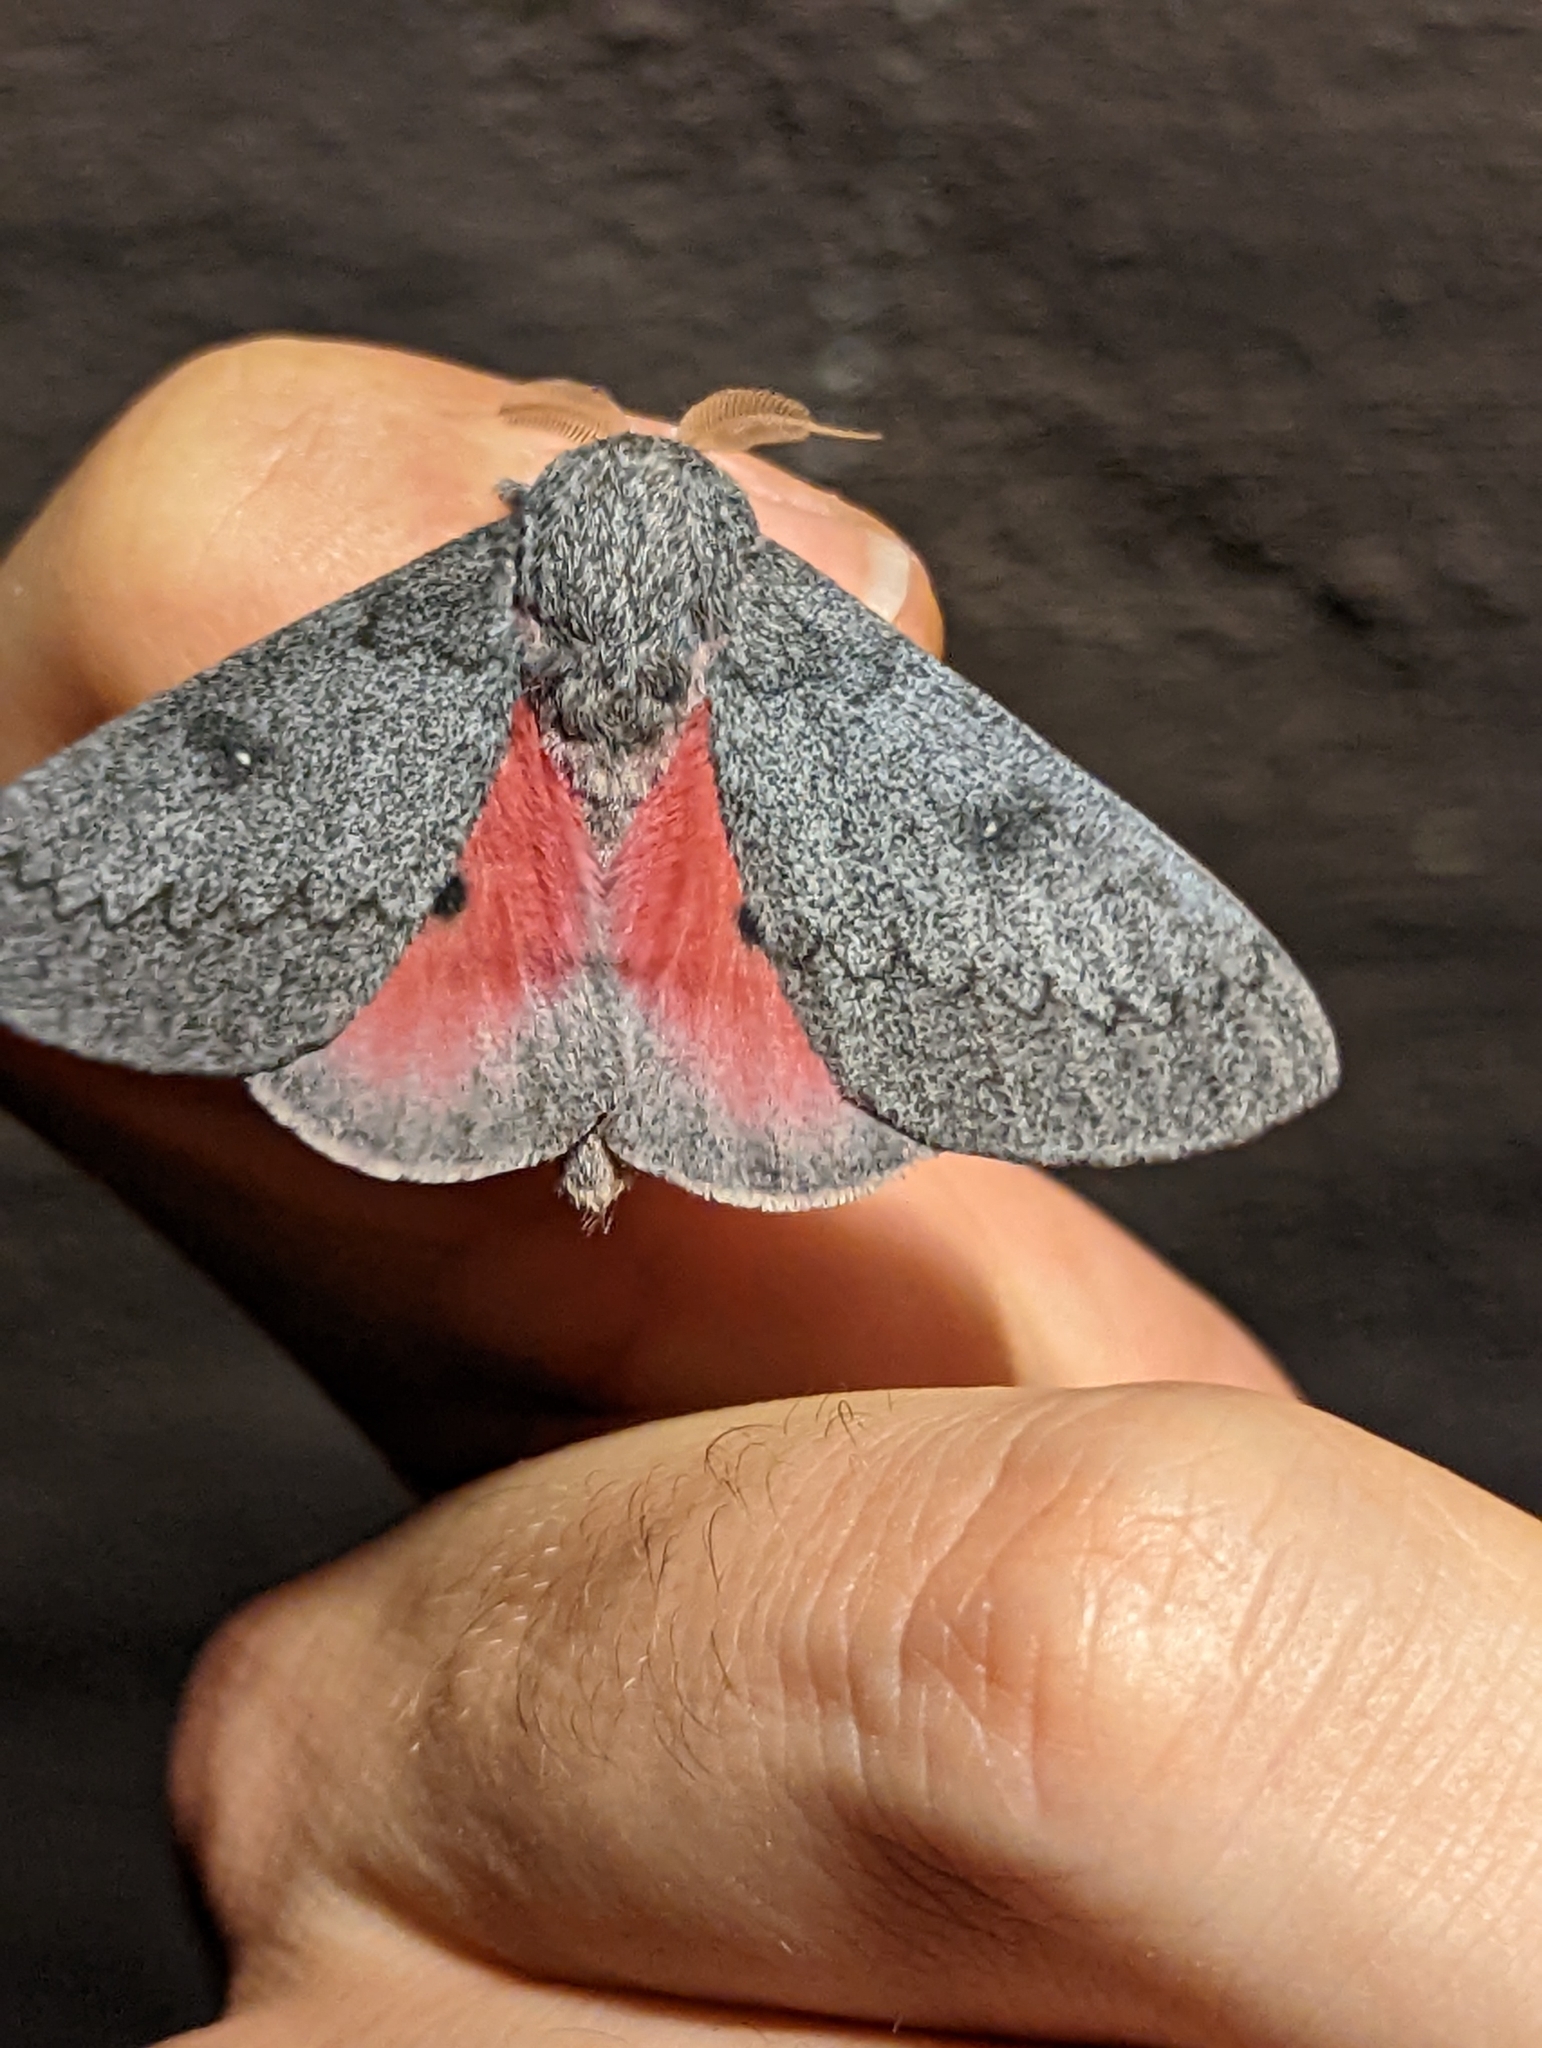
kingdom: Animalia
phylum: Arthropoda
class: Insecta
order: Lepidoptera
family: Saturniidae
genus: Syssphinx
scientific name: Syssphinx hubbardi
